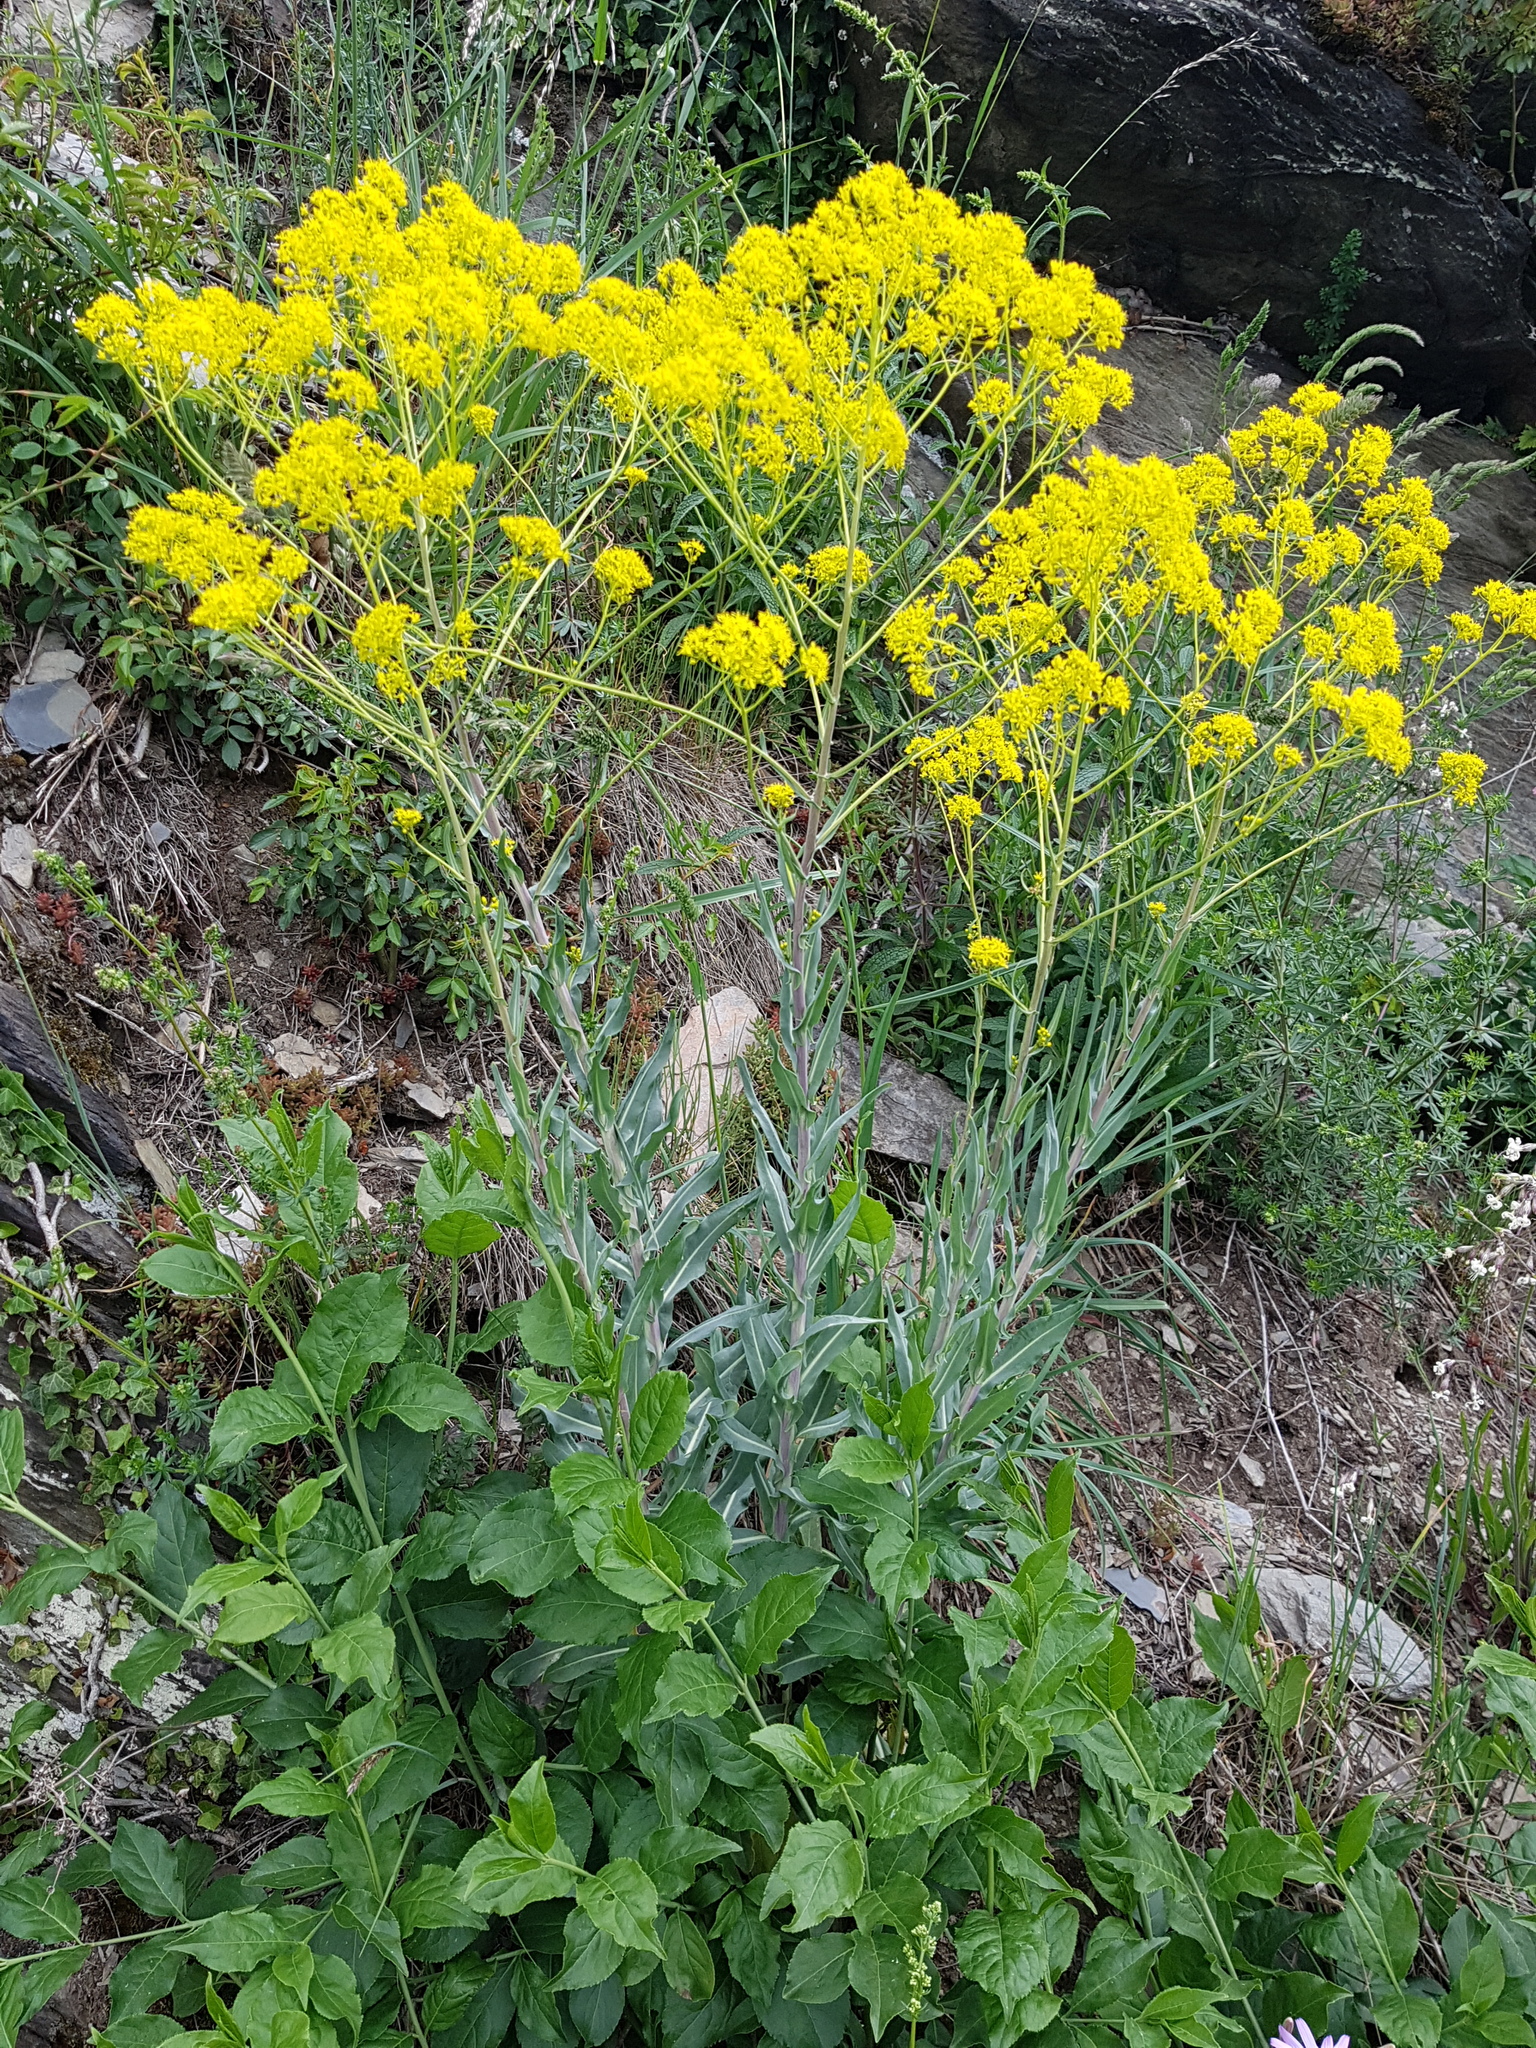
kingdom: Plantae
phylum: Tracheophyta
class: Magnoliopsida
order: Brassicales
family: Brassicaceae
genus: Isatis
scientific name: Isatis tinctoria
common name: Woad
